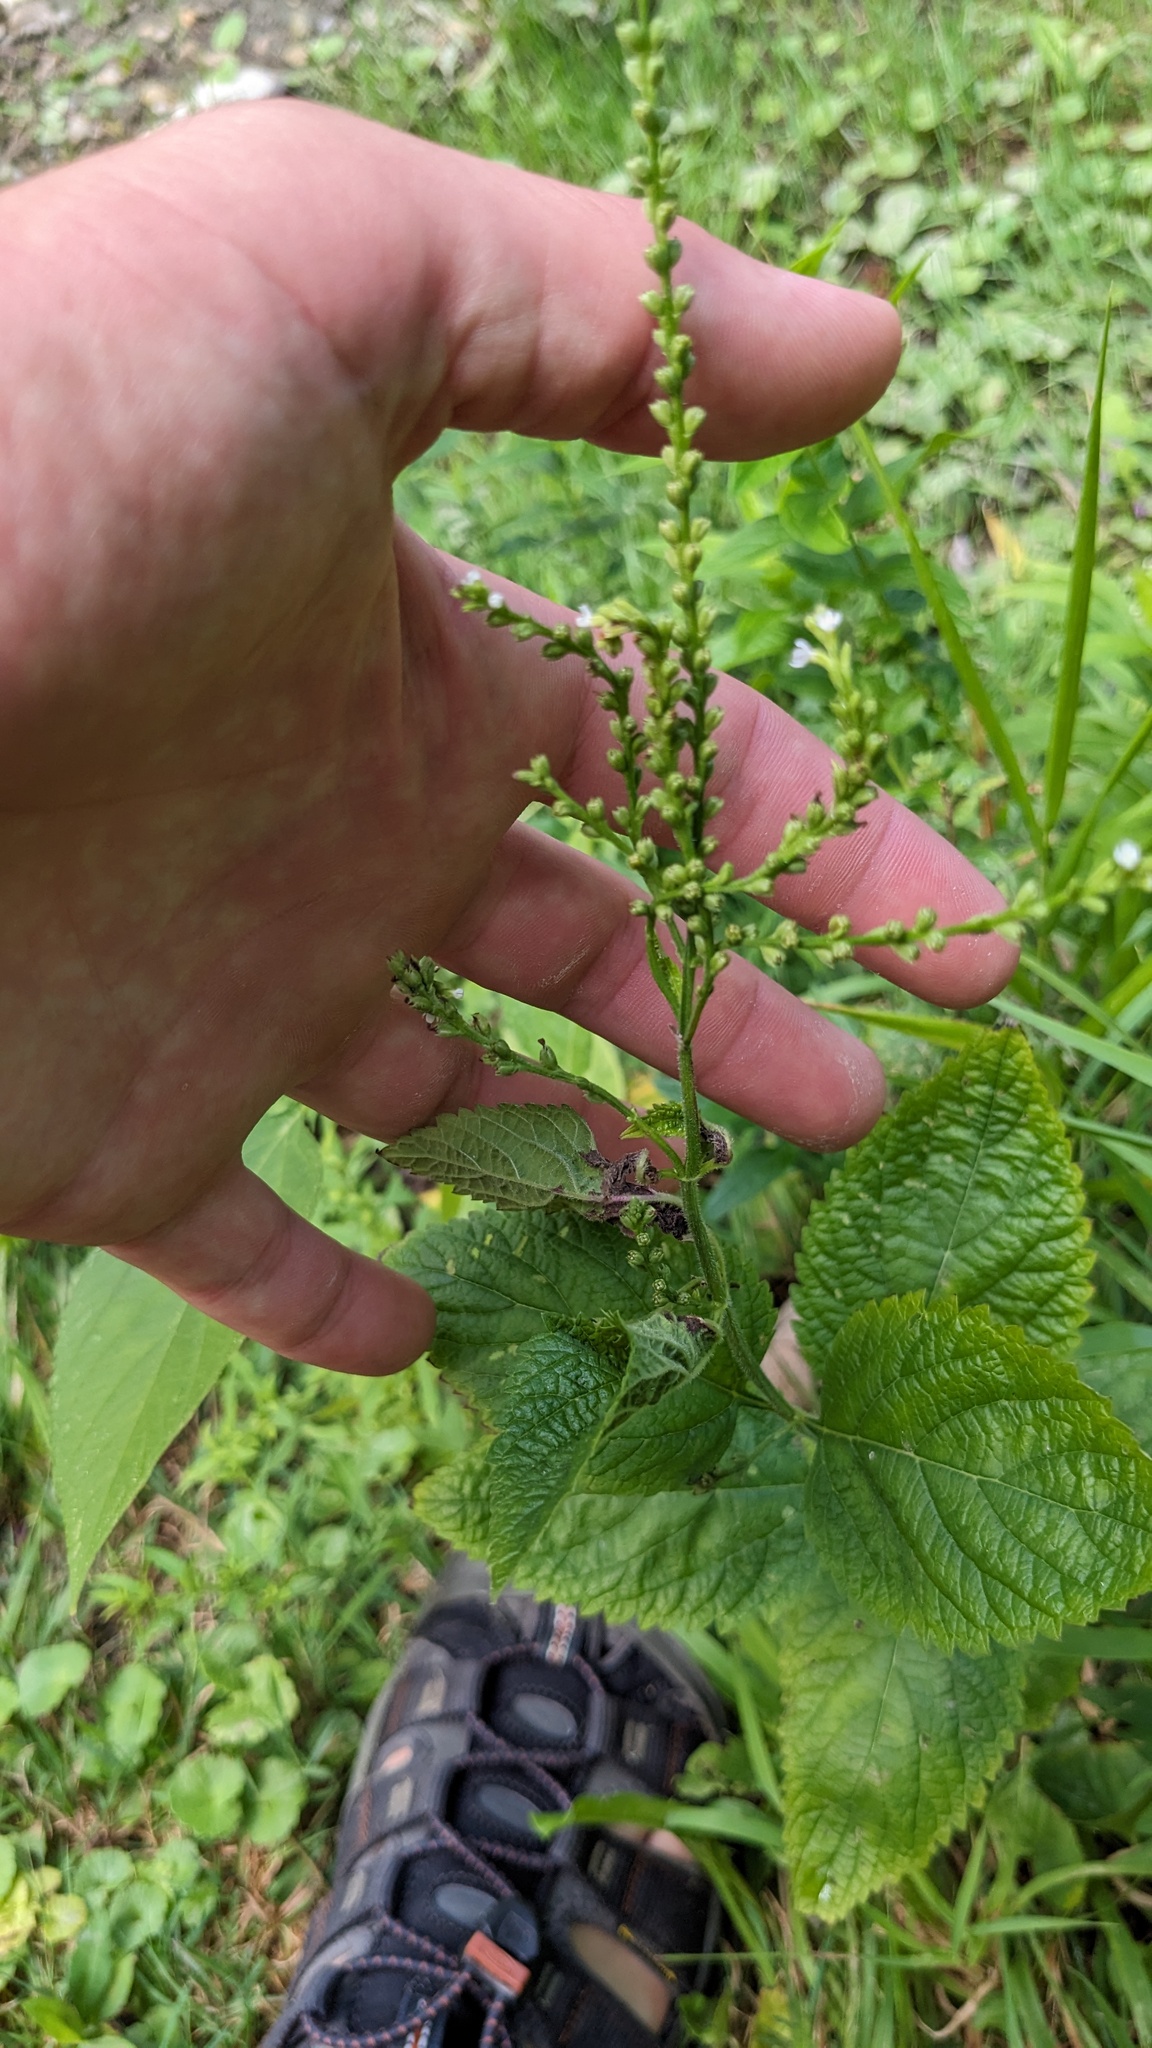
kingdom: Plantae
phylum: Tracheophyta
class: Magnoliopsida
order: Lamiales
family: Verbenaceae
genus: Verbena
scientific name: Verbena urticifolia
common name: Nettle-leaved vervain
